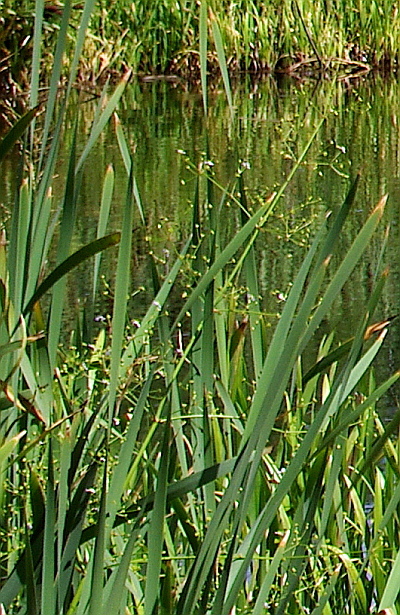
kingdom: Plantae
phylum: Tracheophyta
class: Liliopsida
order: Alismatales
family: Alismataceae
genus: Alisma
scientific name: Alisma plantago-aquatica
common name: Water-plantain
